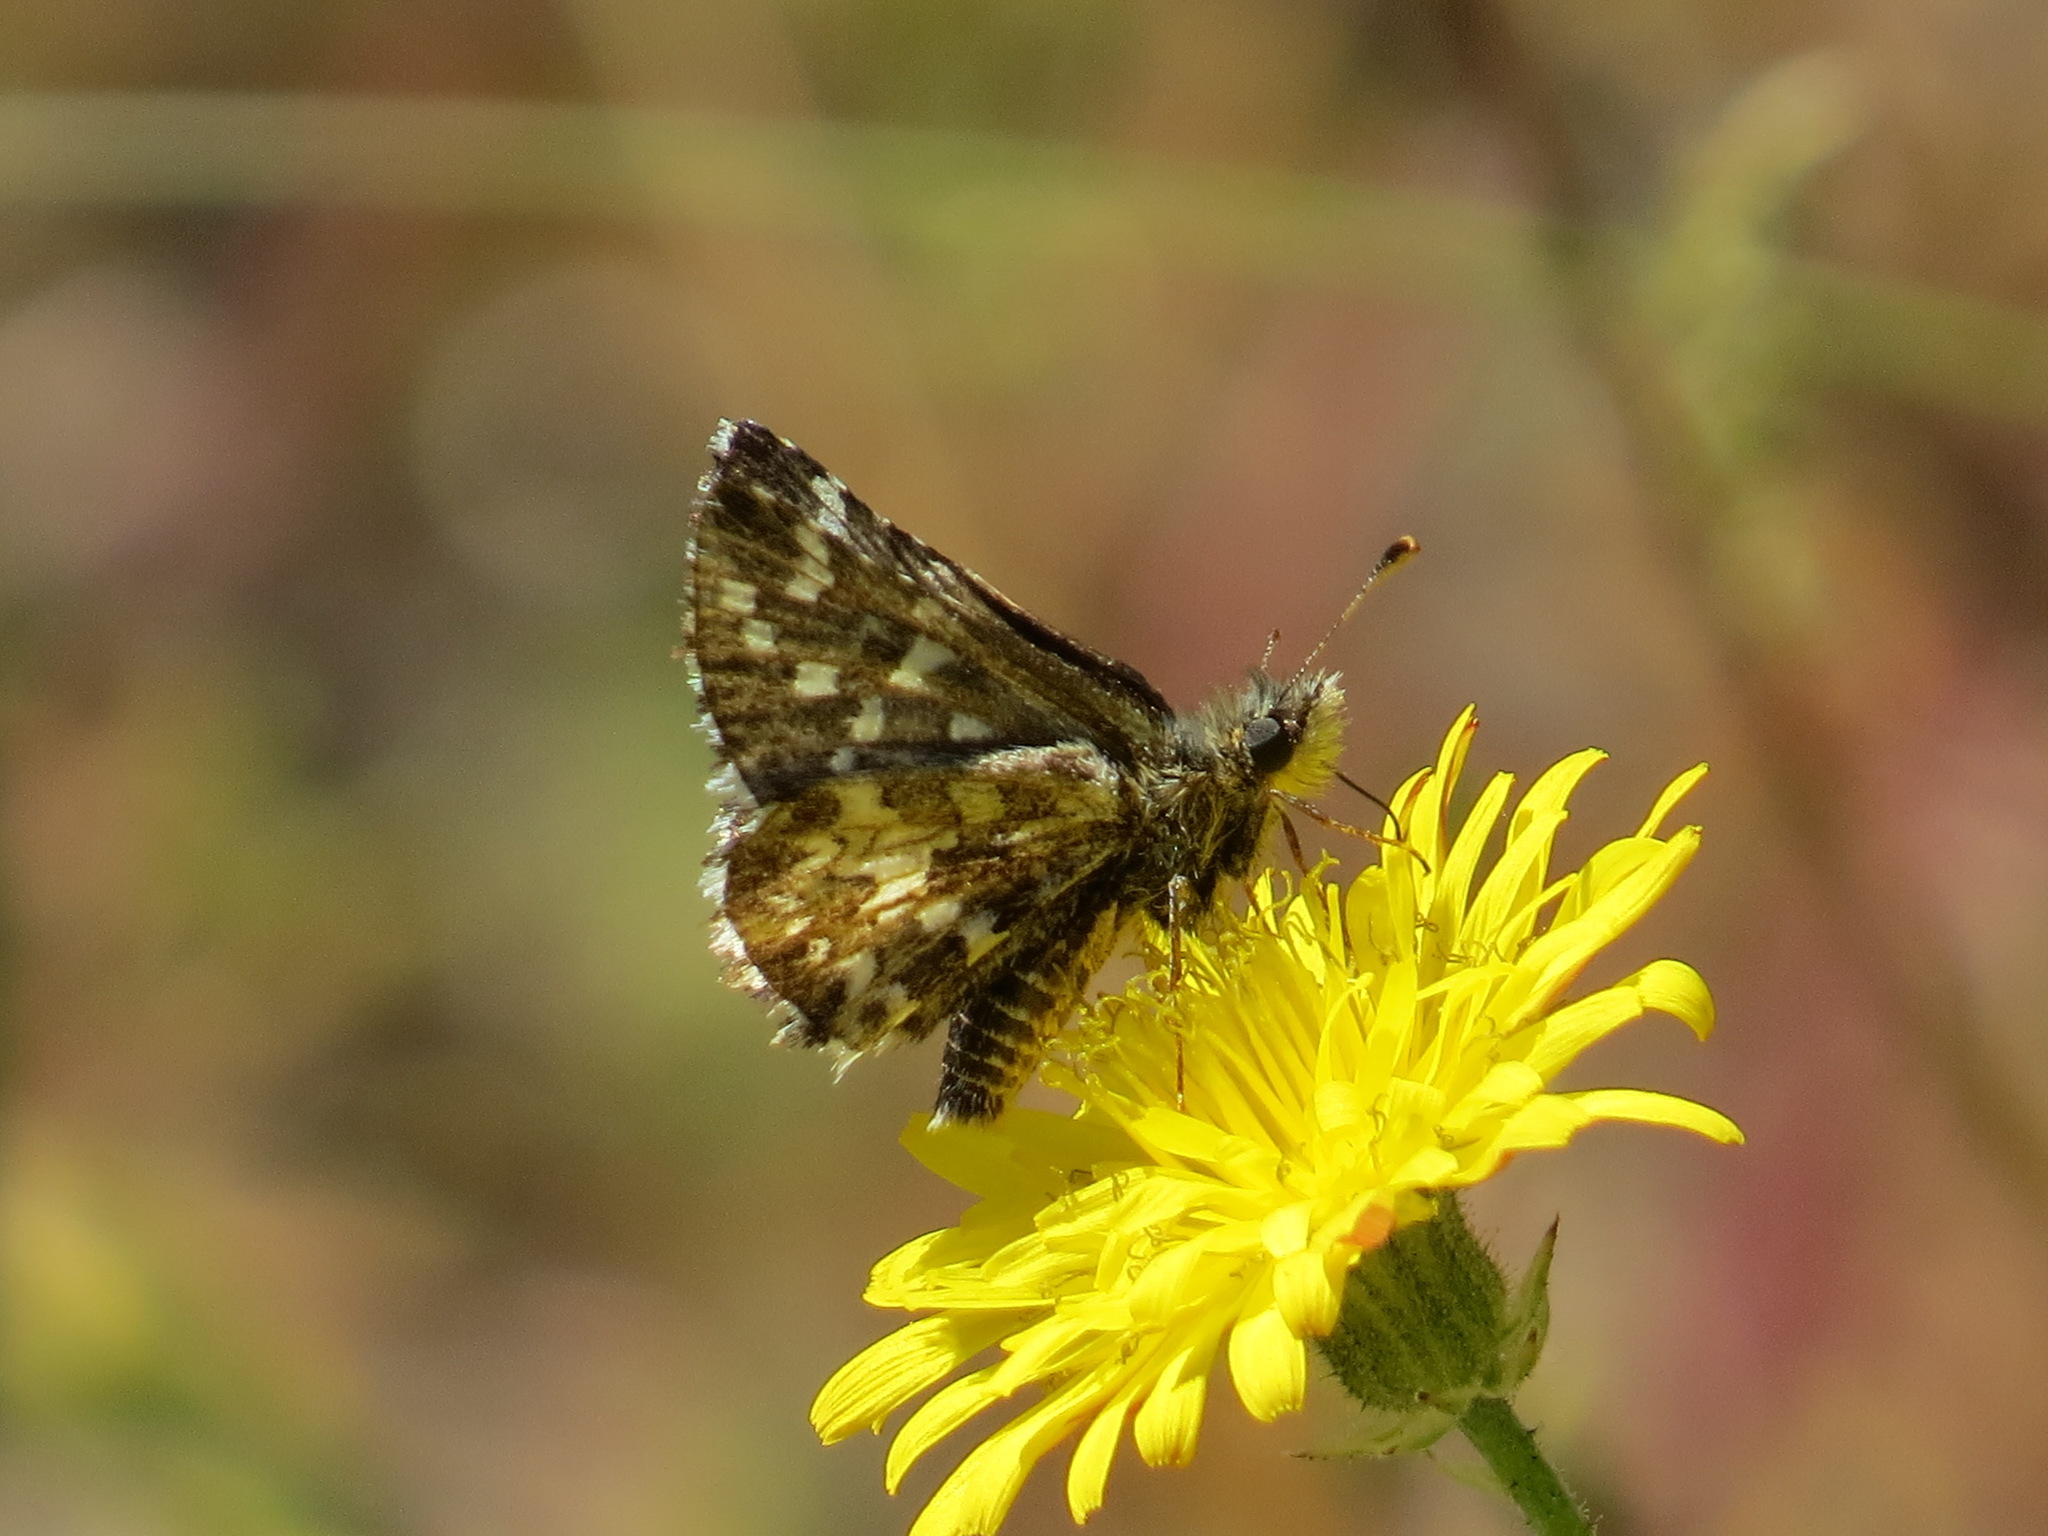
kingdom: Animalia
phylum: Arthropoda
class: Insecta
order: Lepidoptera
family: Hesperiidae
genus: Pyrgus
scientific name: Pyrgus ruralis
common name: Two-banded checkered-skipper
